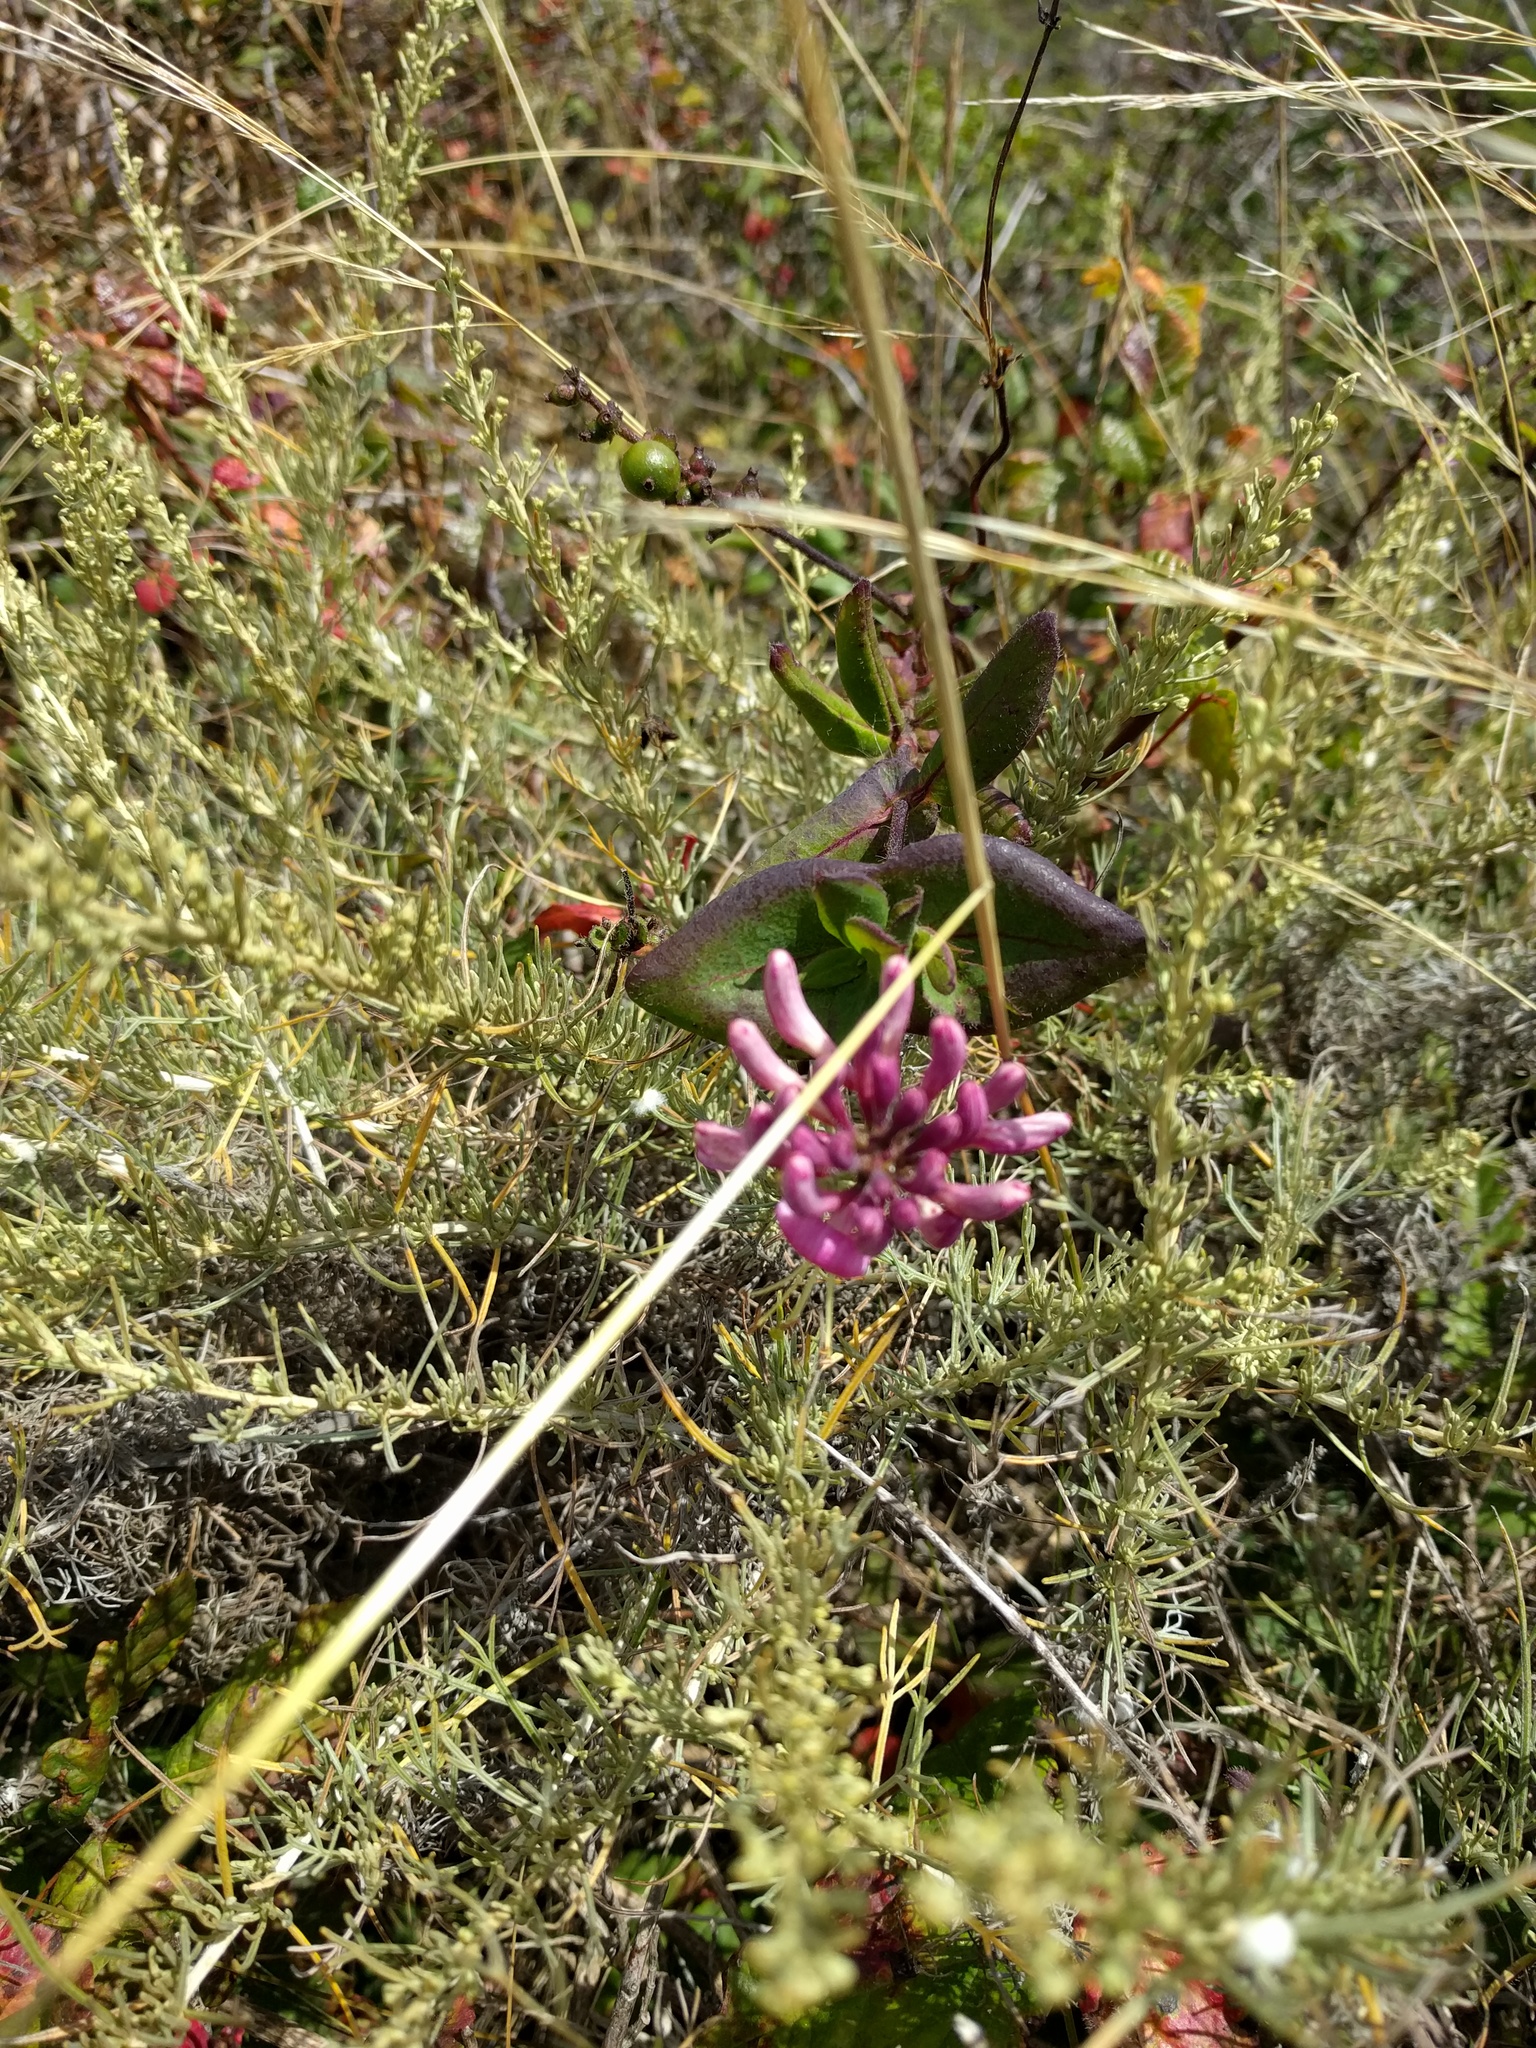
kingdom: Plantae
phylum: Tracheophyta
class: Magnoliopsida
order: Dipsacales
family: Caprifoliaceae
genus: Lonicera
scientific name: Lonicera hispidula
